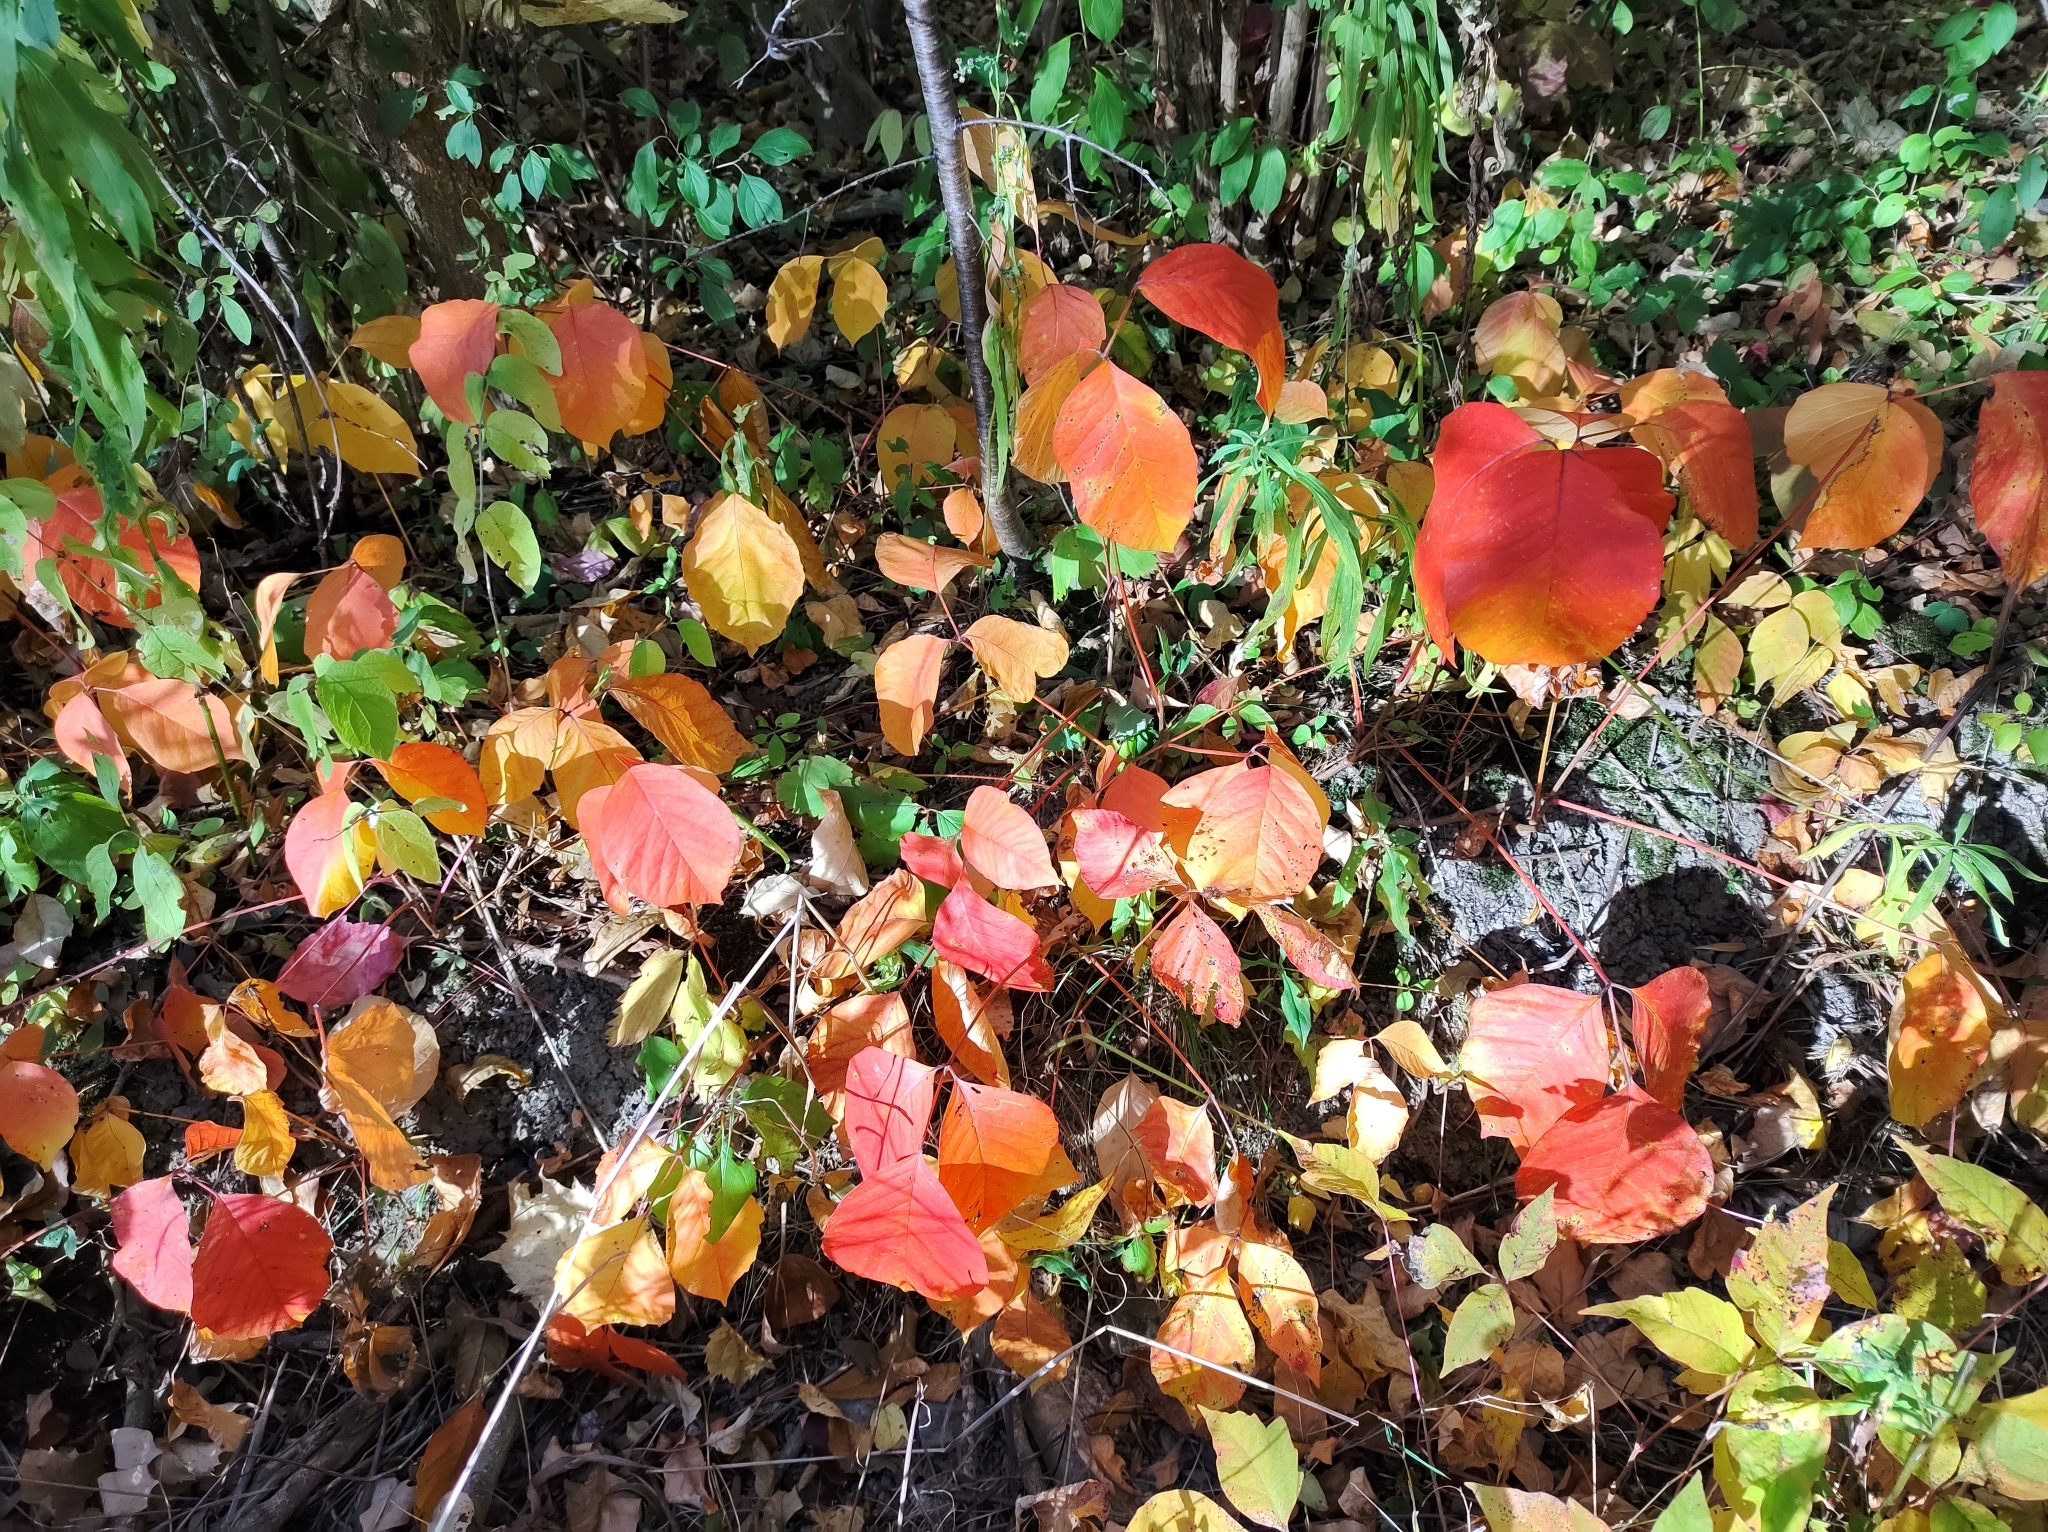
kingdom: Plantae
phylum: Tracheophyta
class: Magnoliopsida
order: Sapindales
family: Anacardiaceae
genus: Toxicodendron
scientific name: Toxicodendron radicans
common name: Poison ivy
